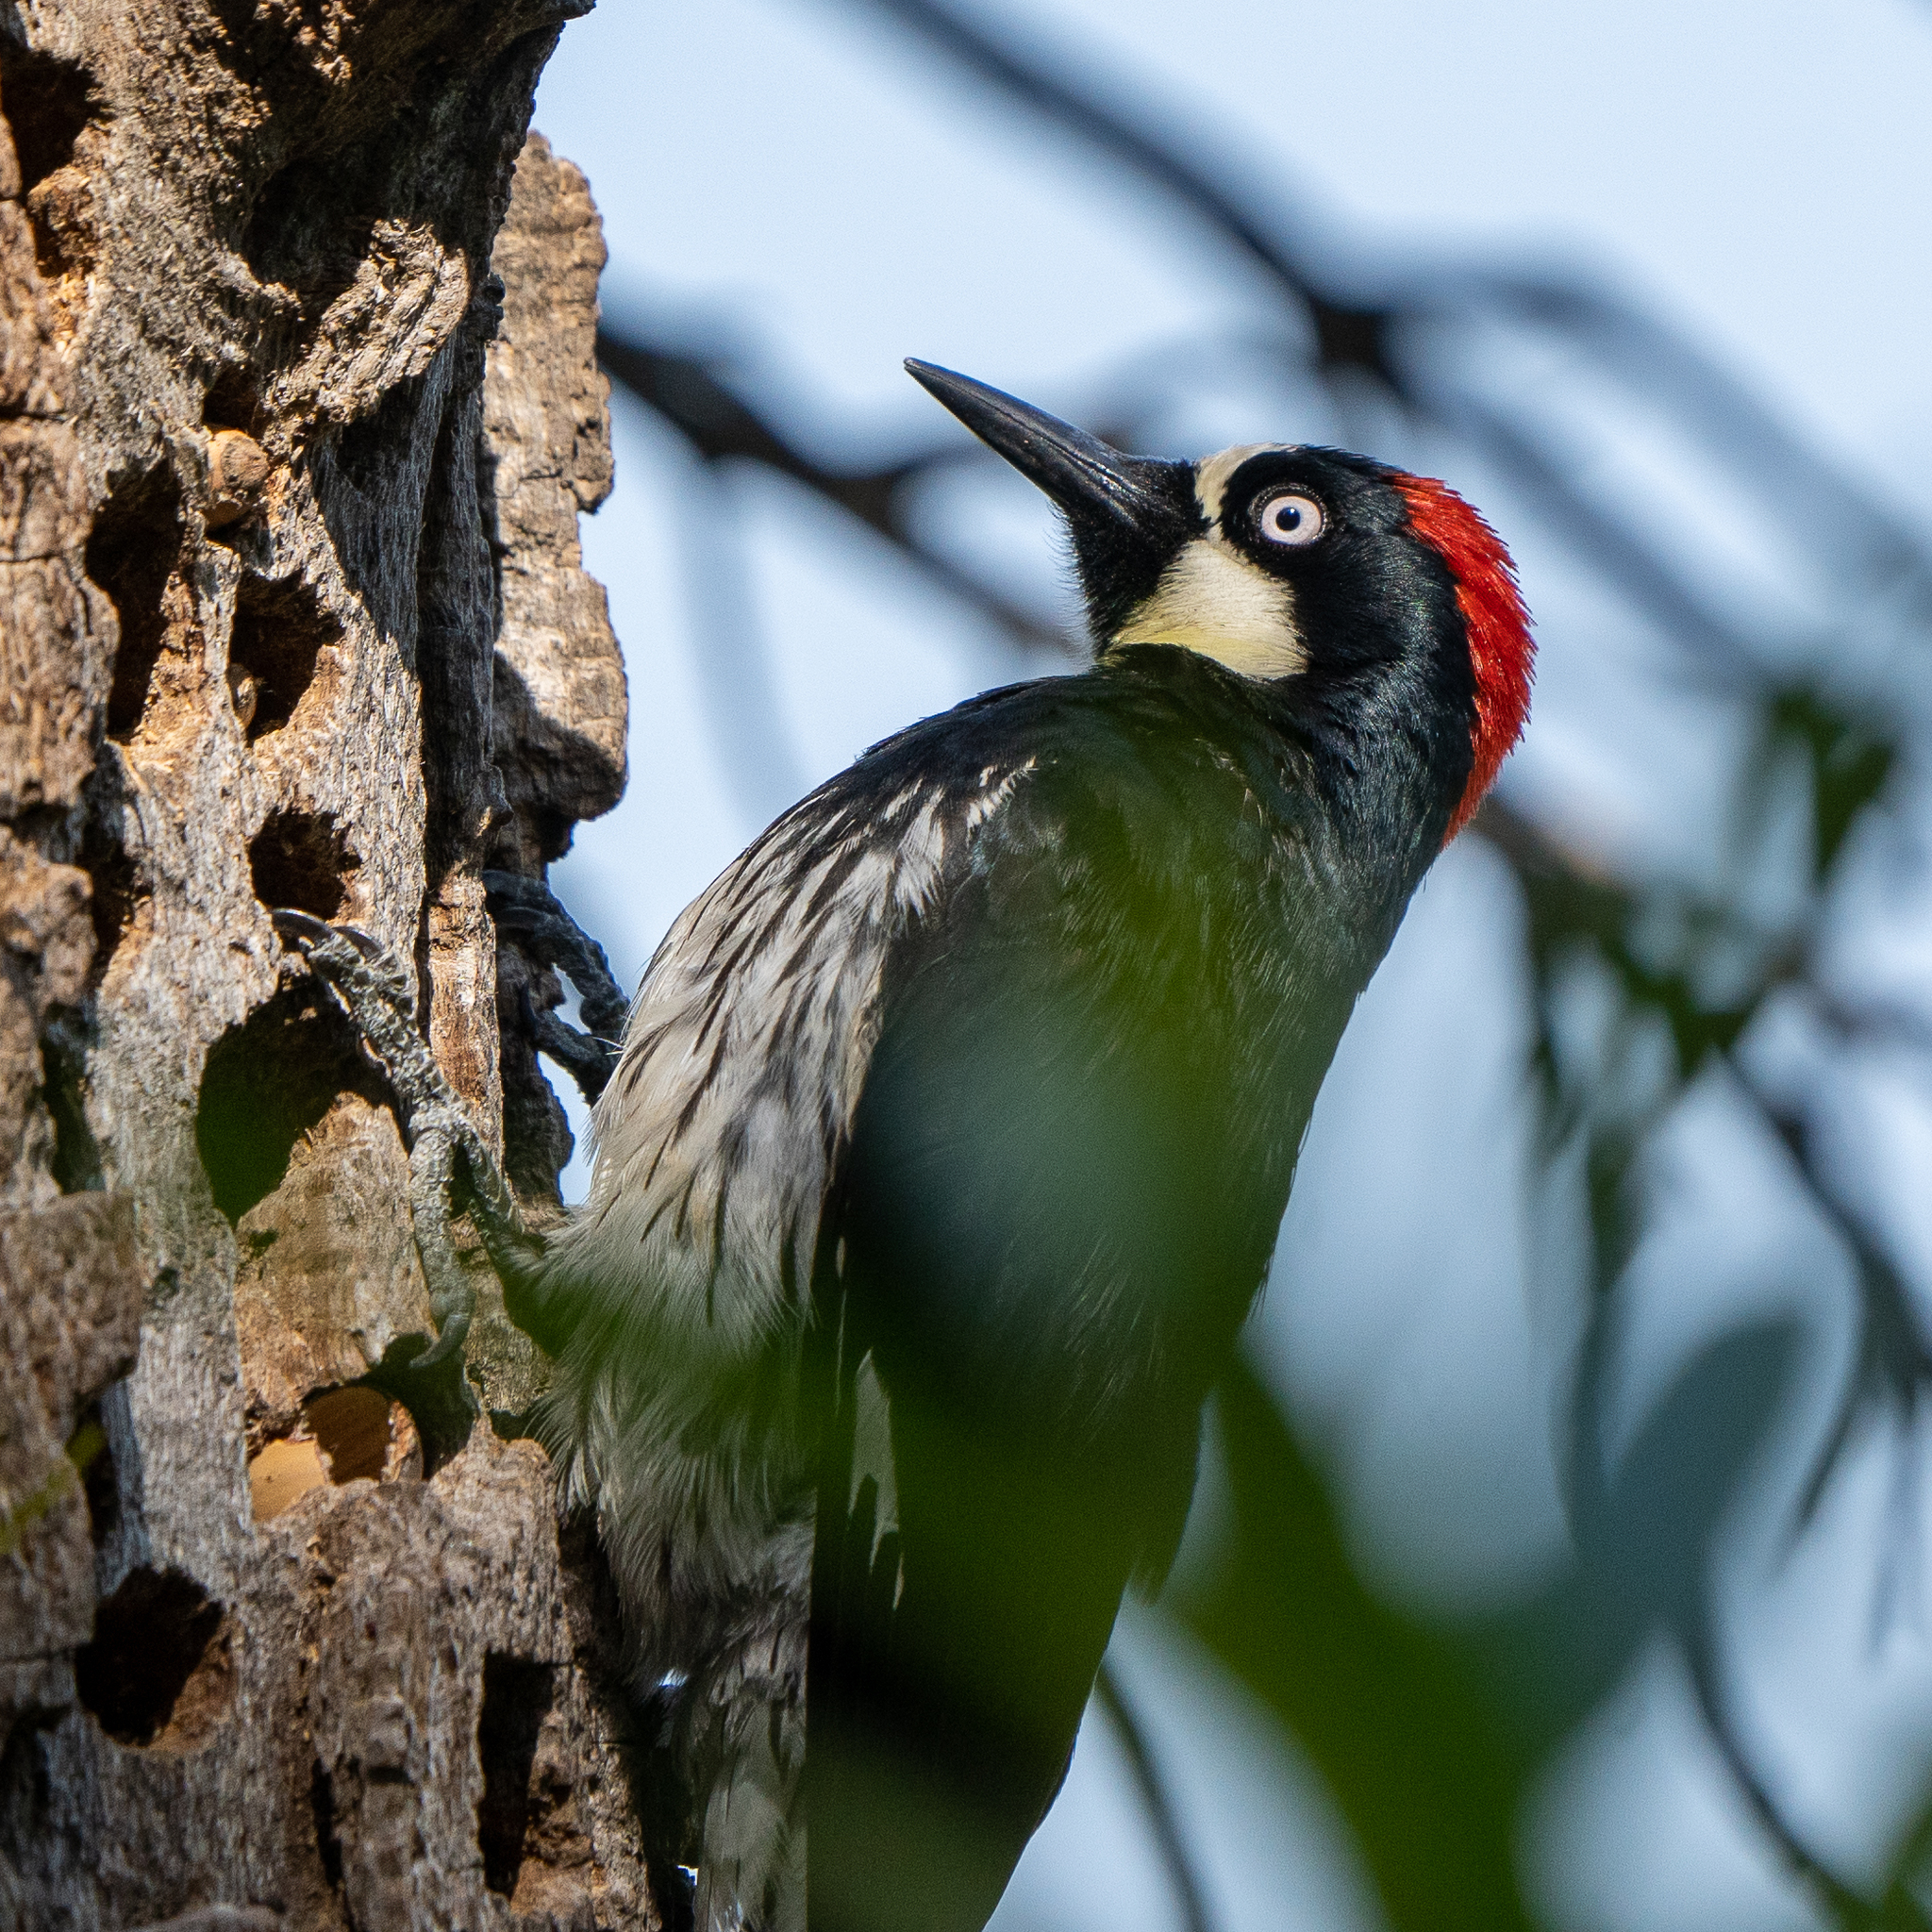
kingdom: Animalia
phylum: Chordata
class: Aves
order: Piciformes
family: Picidae
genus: Melanerpes
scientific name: Melanerpes formicivorus
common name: Acorn woodpecker
